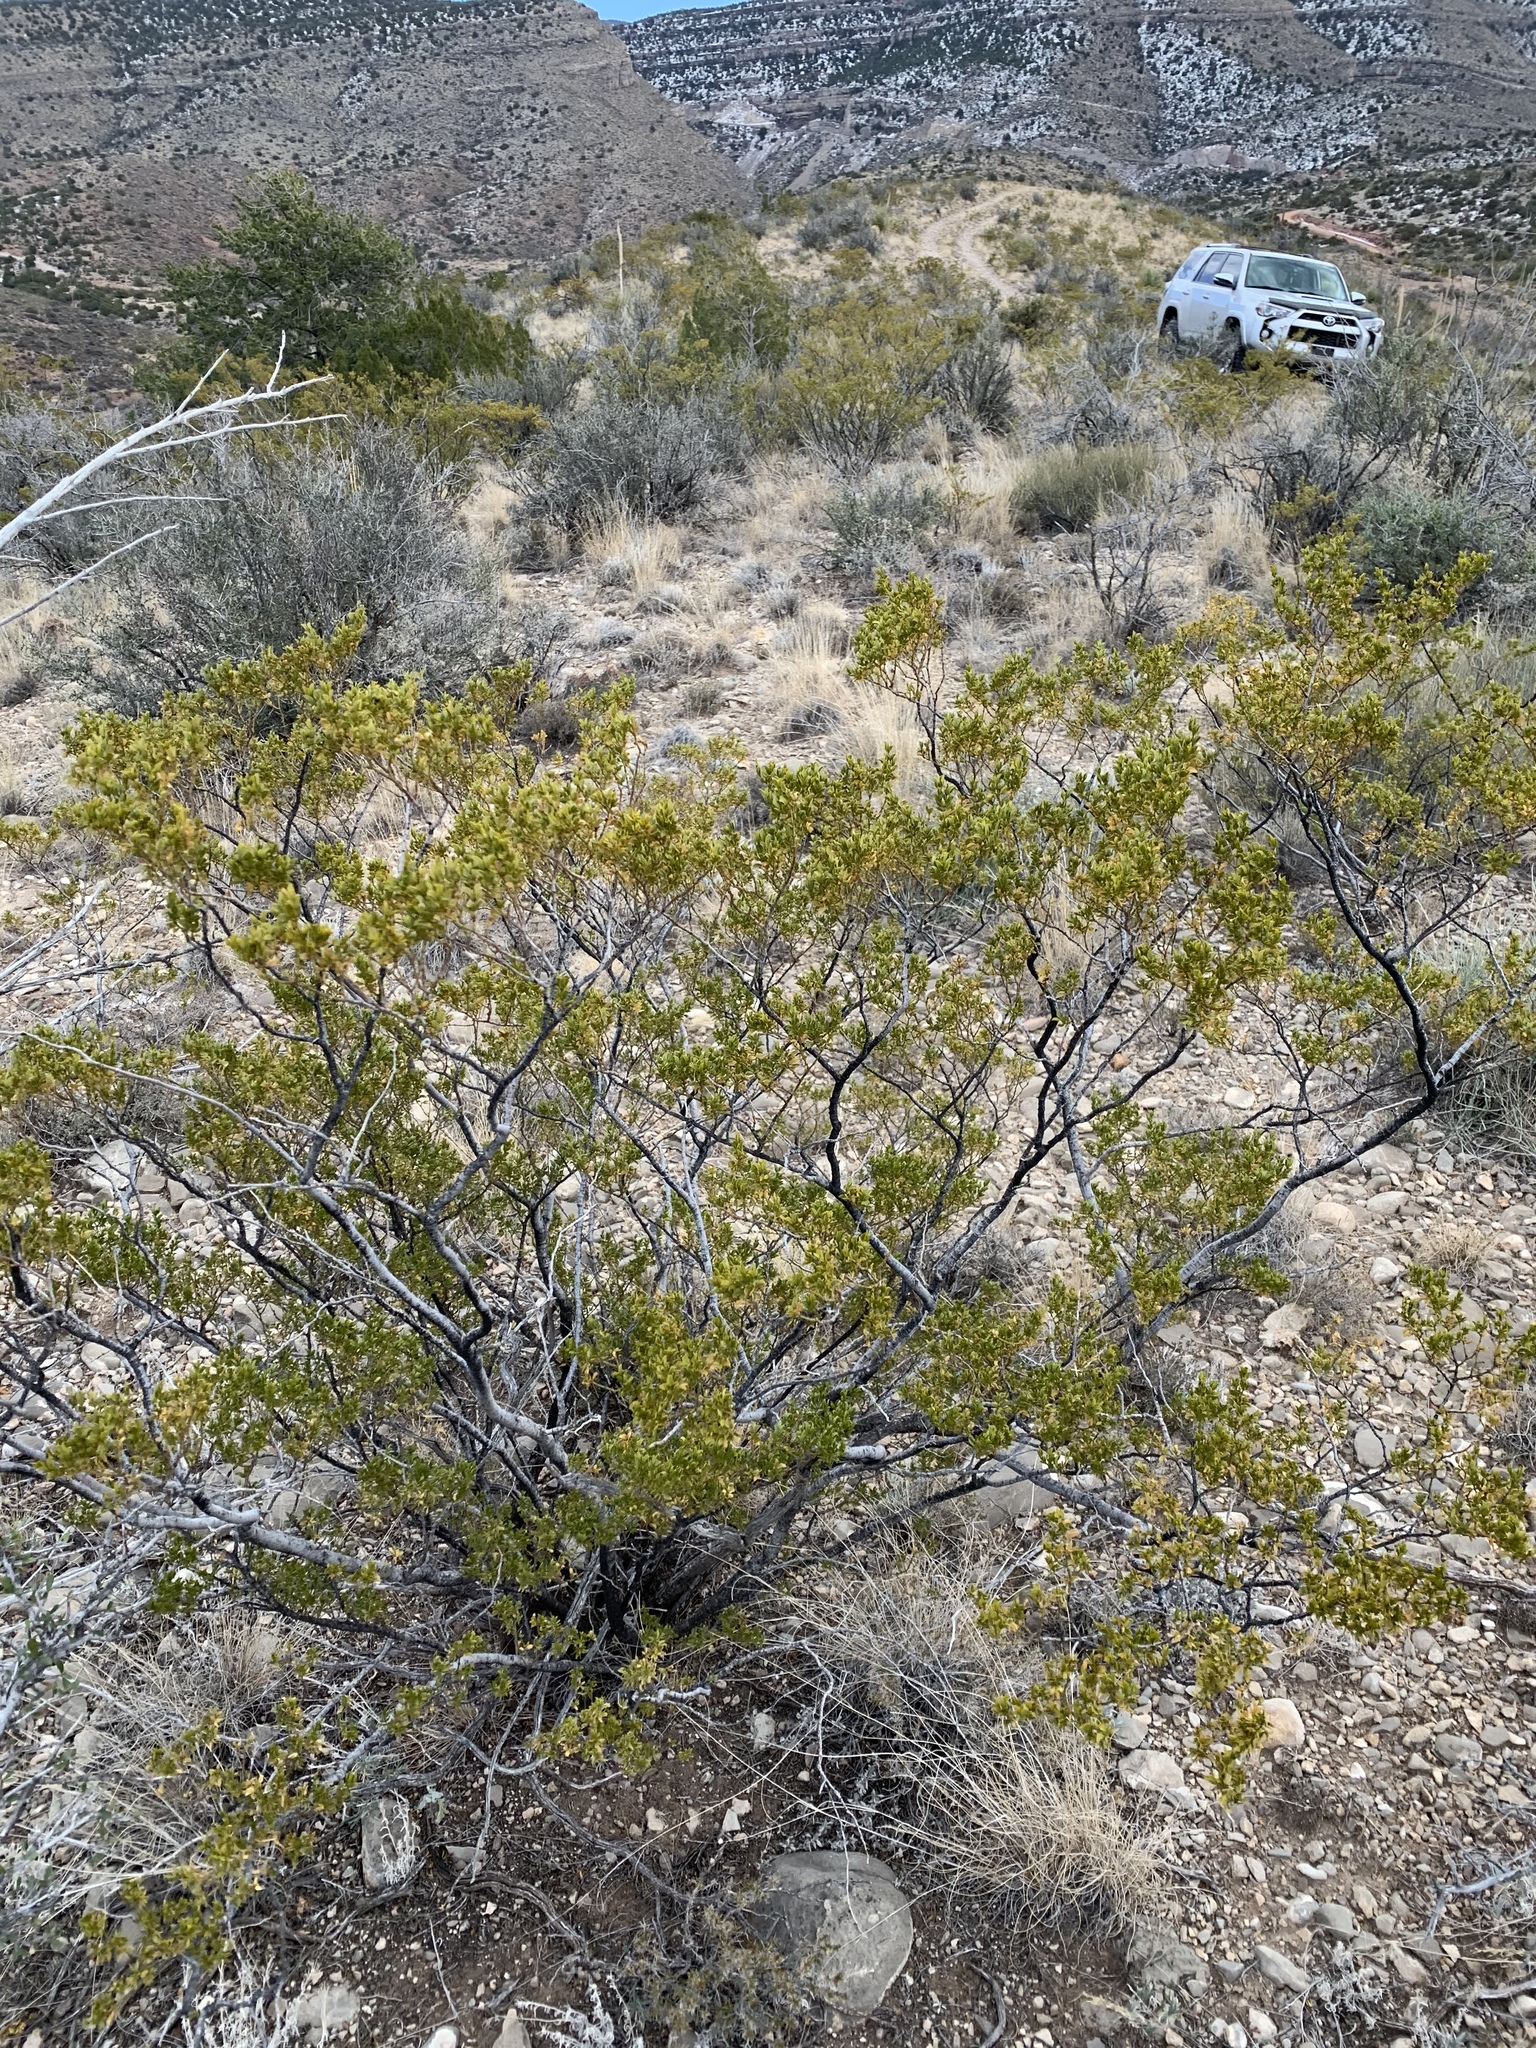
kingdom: Plantae
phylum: Tracheophyta
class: Magnoliopsida
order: Zygophyllales
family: Zygophyllaceae
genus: Larrea
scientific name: Larrea tridentata
